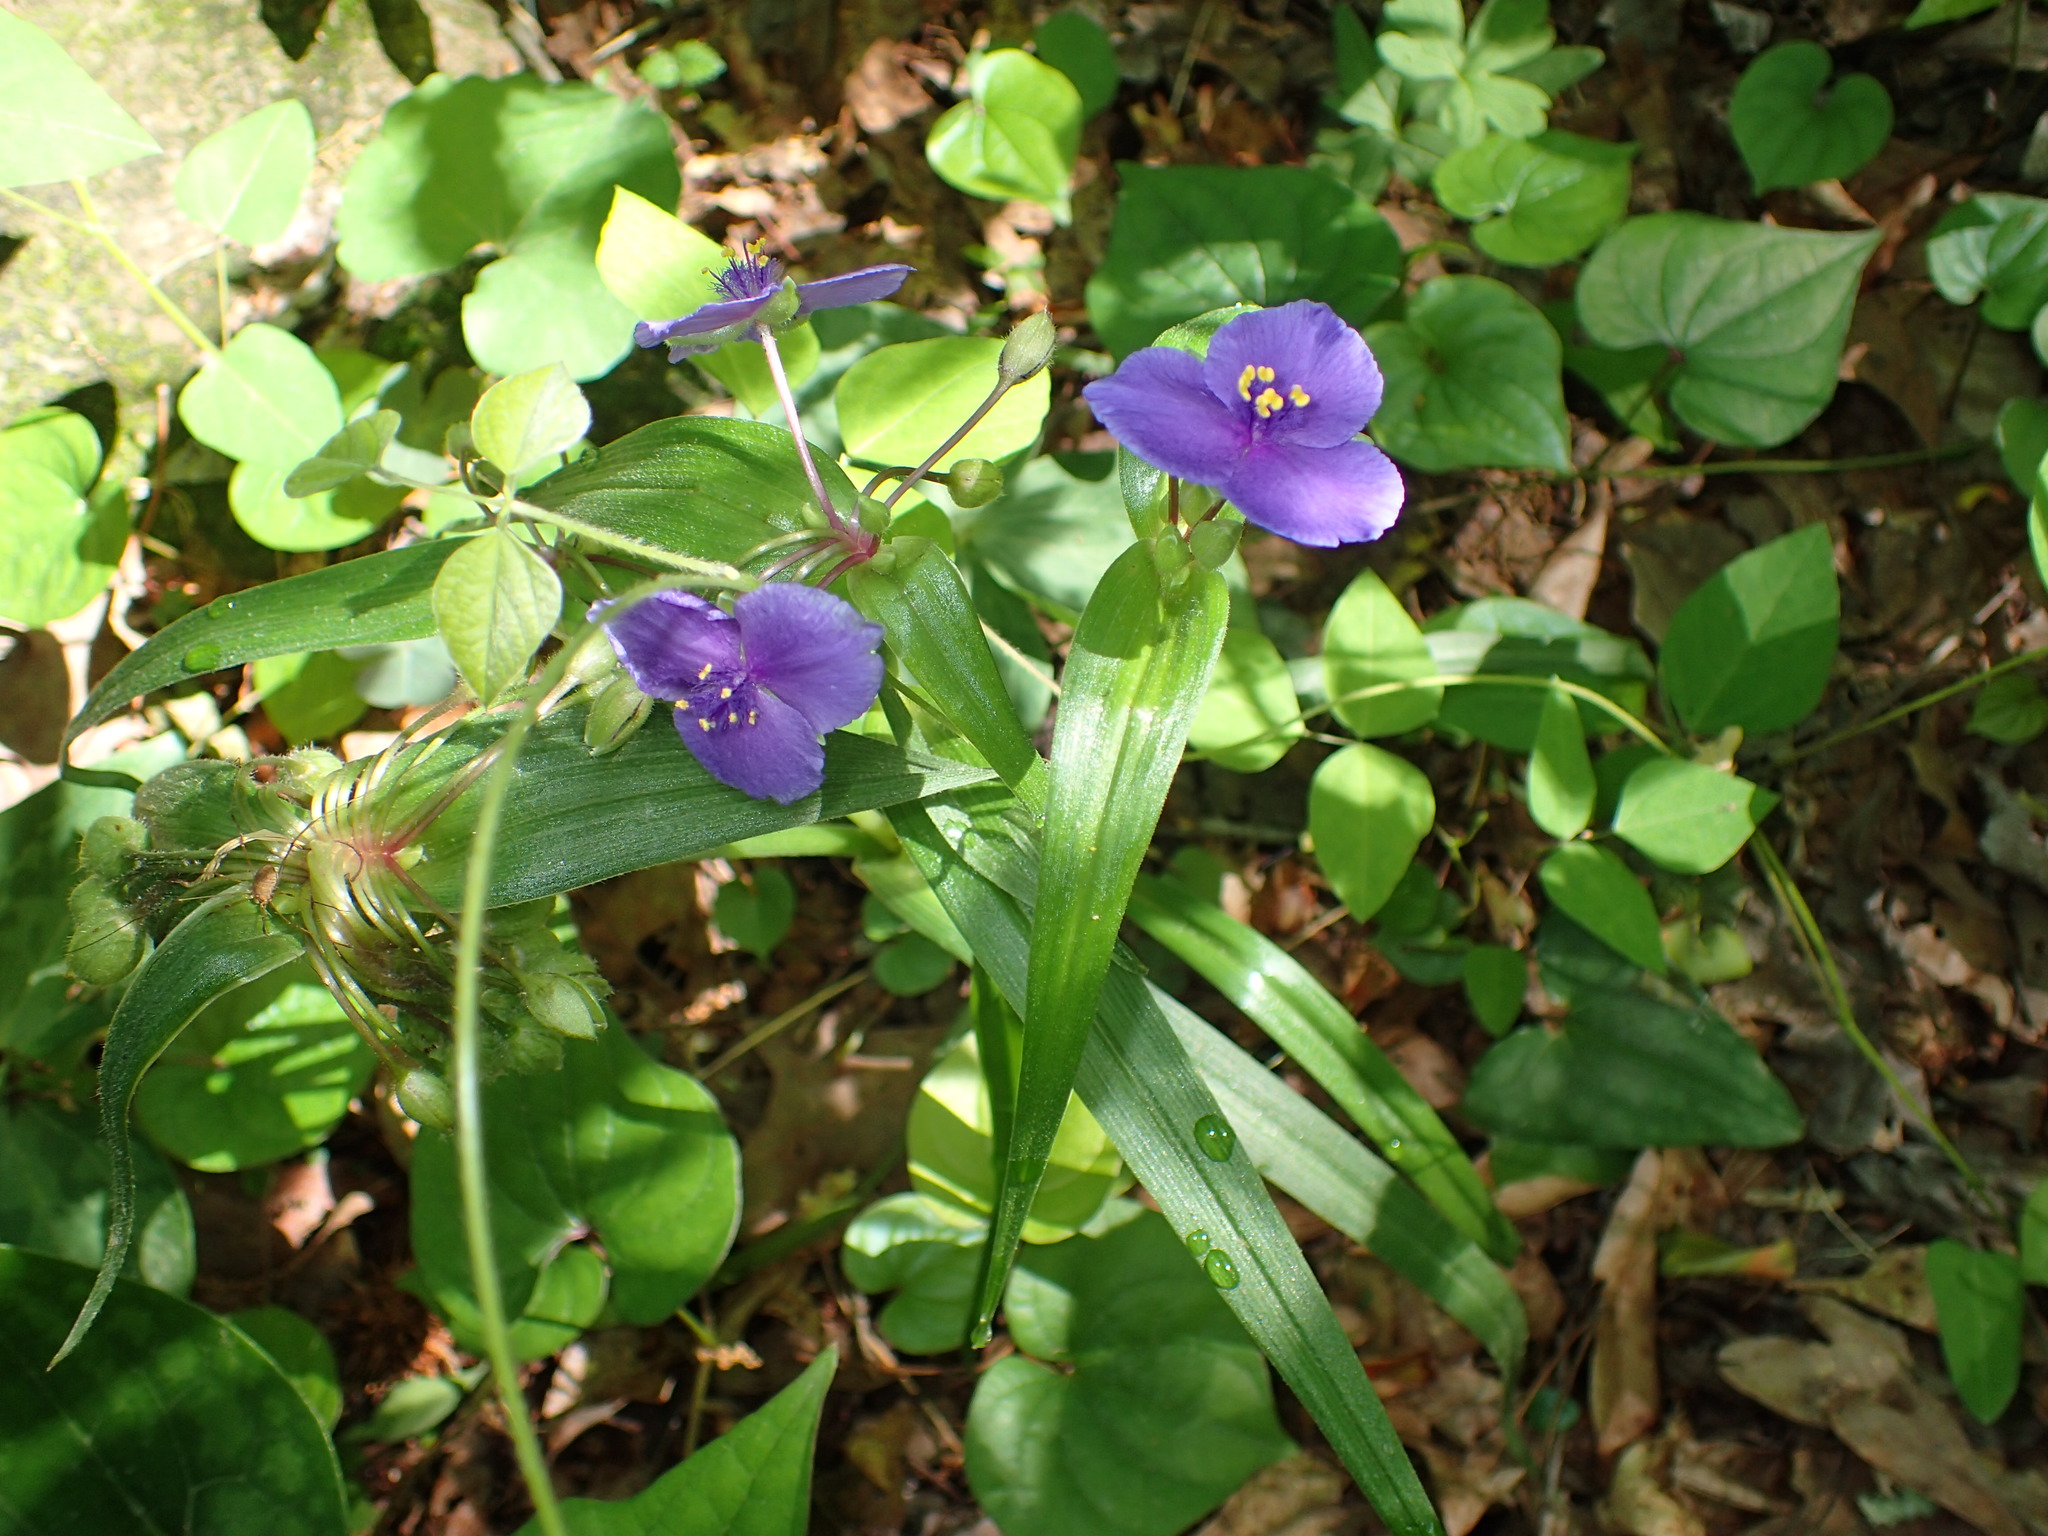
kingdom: Plantae
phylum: Tracheophyta
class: Liliopsida
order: Commelinales
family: Commelinaceae
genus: Tradescantia
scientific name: Tradescantia virginiana
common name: Spiderwort
